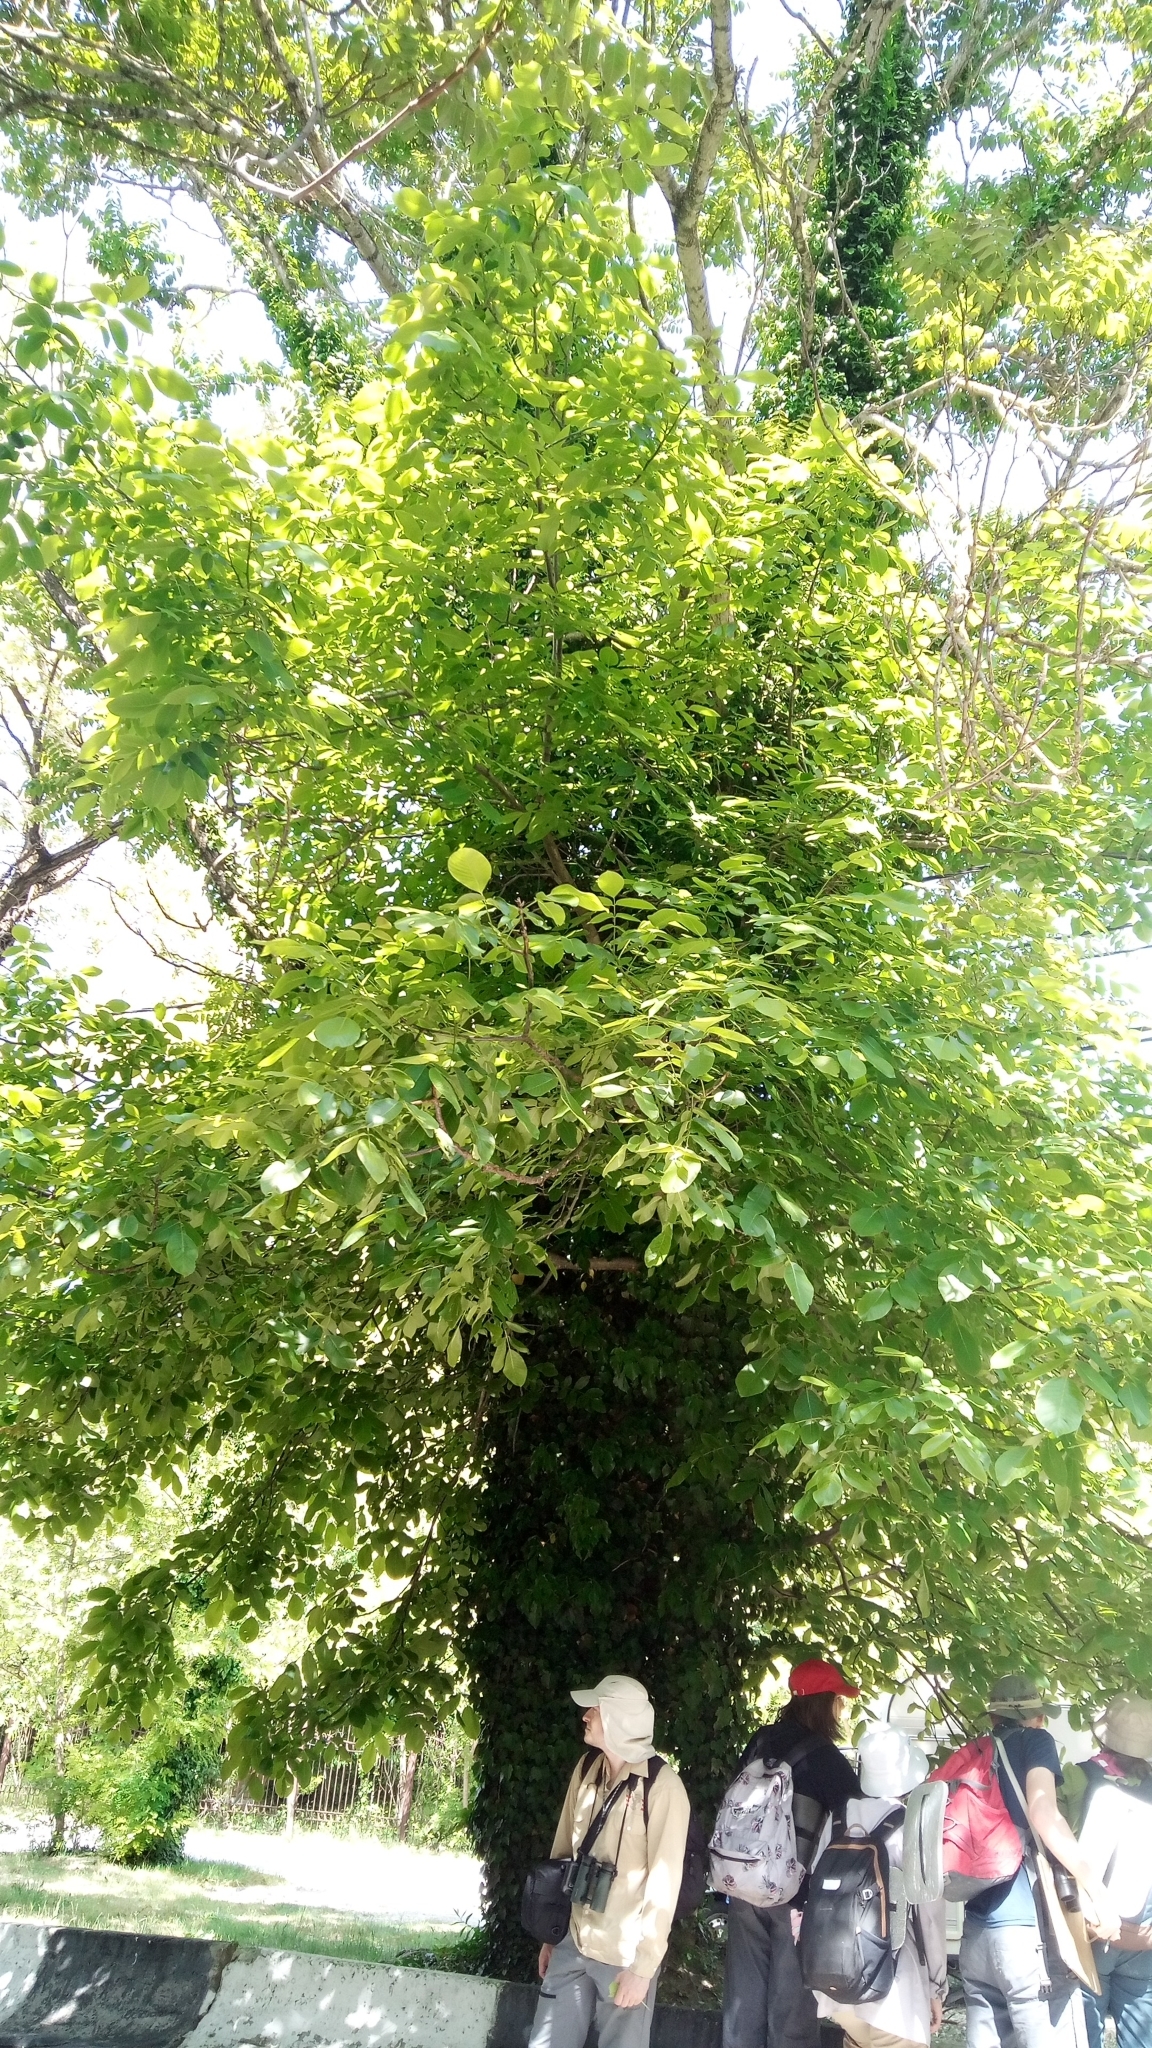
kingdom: Plantae
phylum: Tracheophyta
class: Magnoliopsida
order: Fagales
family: Juglandaceae
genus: Juglans
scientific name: Juglans regia
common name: Walnut
